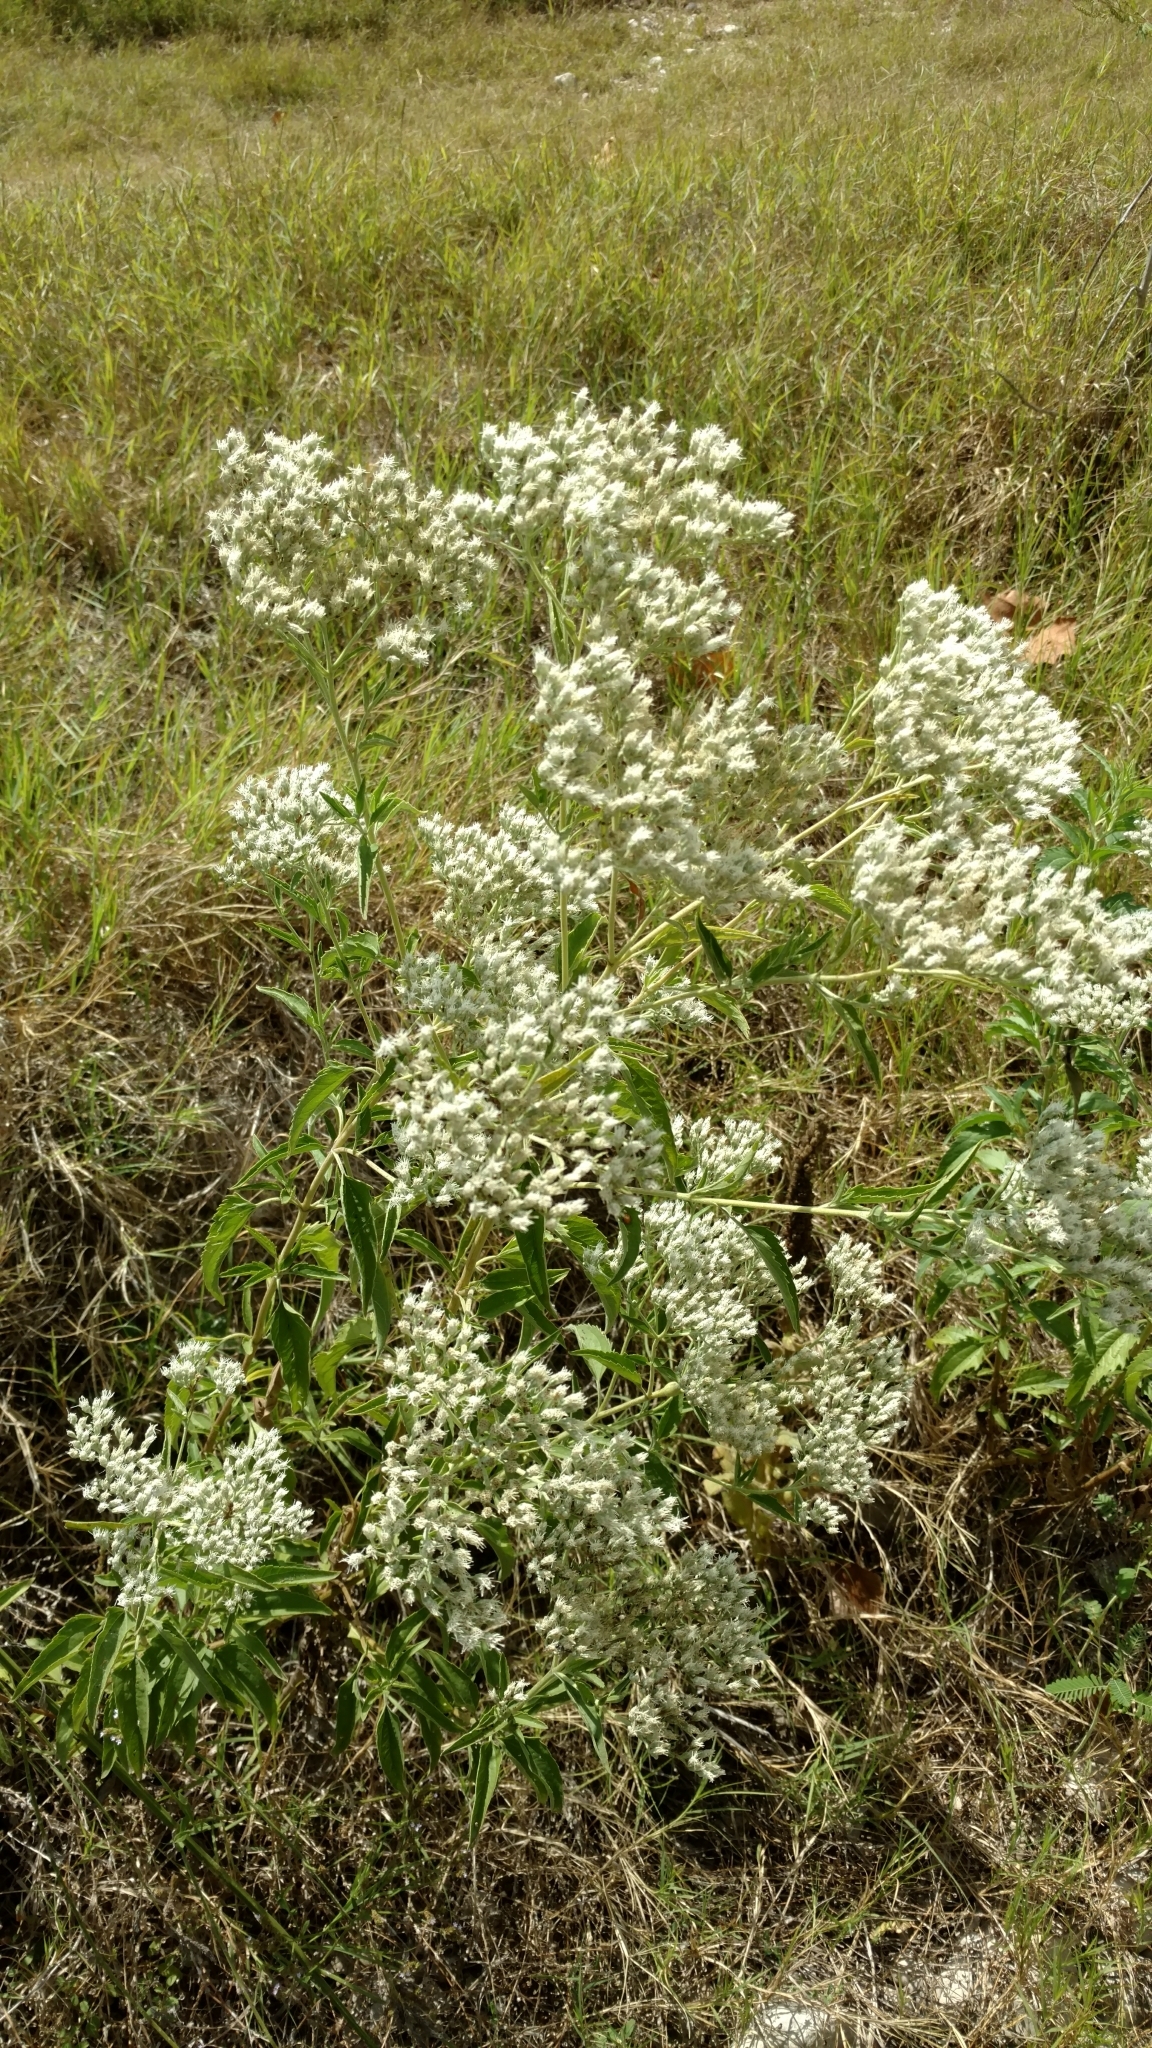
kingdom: Plantae
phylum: Tracheophyta
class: Magnoliopsida
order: Asterales
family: Asteraceae
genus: Eupatorium
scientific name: Eupatorium serotinum
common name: Late boneset
